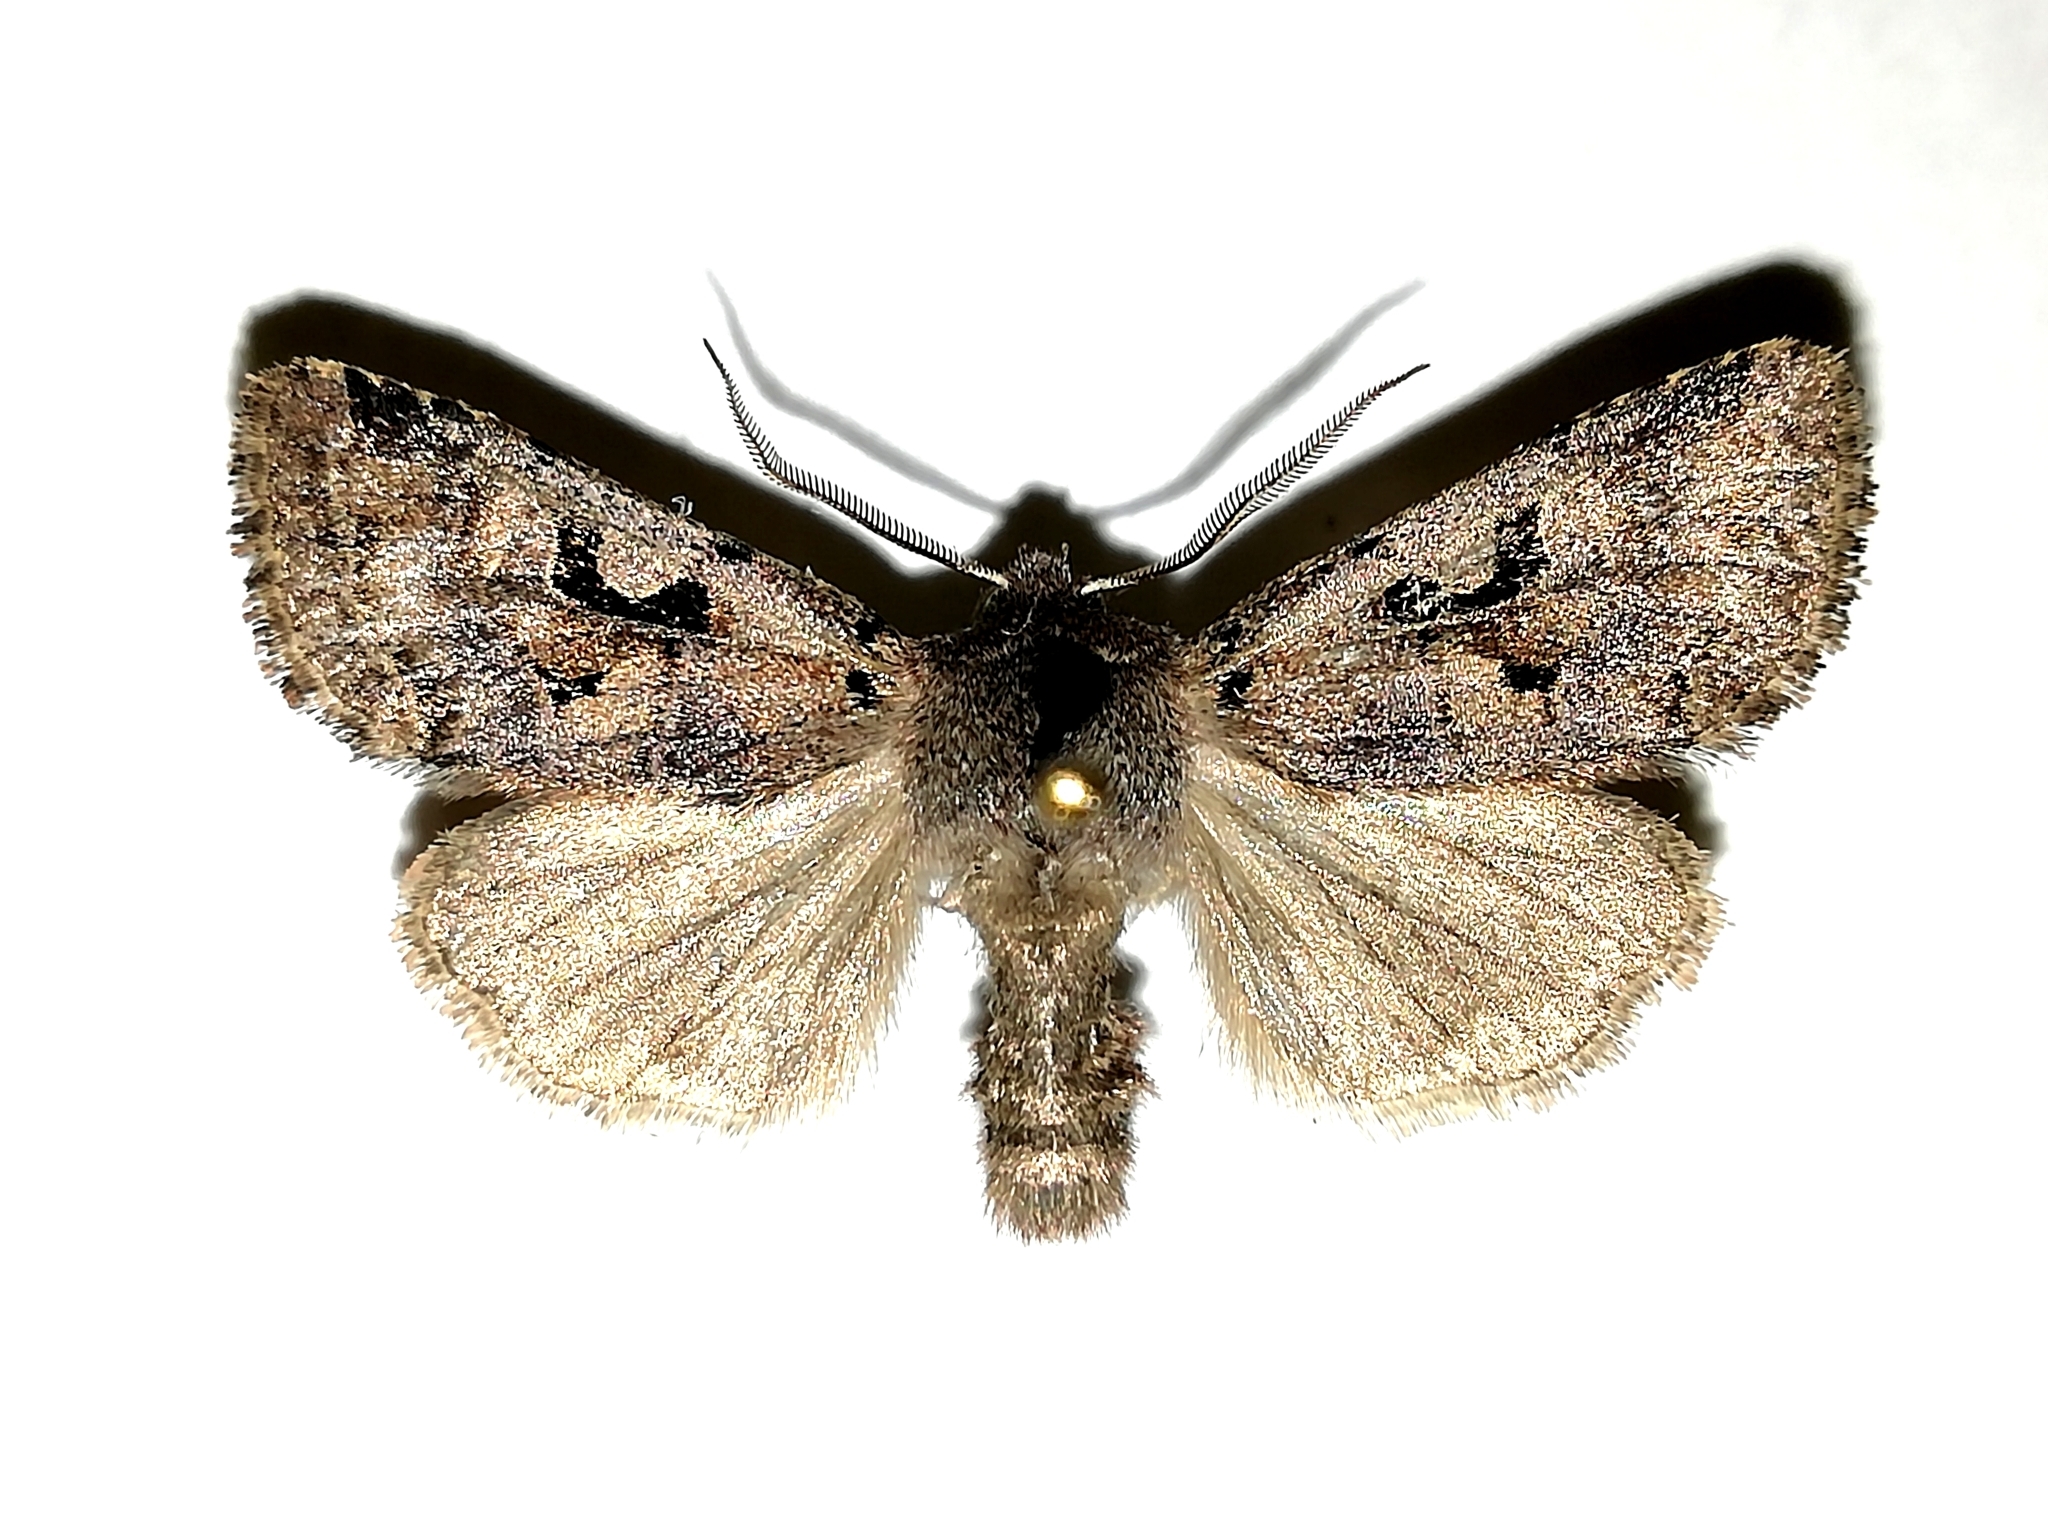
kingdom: Animalia
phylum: Arthropoda
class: Insecta
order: Lepidoptera
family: Noctuidae
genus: Orthosia
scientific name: Orthosia gothica
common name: Hebrew character
